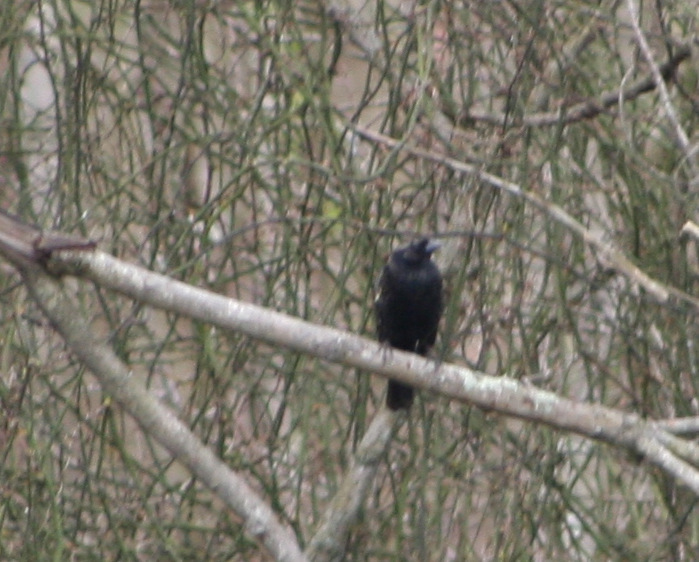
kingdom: Animalia
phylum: Chordata
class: Aves
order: Passeriformes
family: Icteridae
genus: Agelaius
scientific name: Agelaius phoeniceus
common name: Red-winged blackbird
